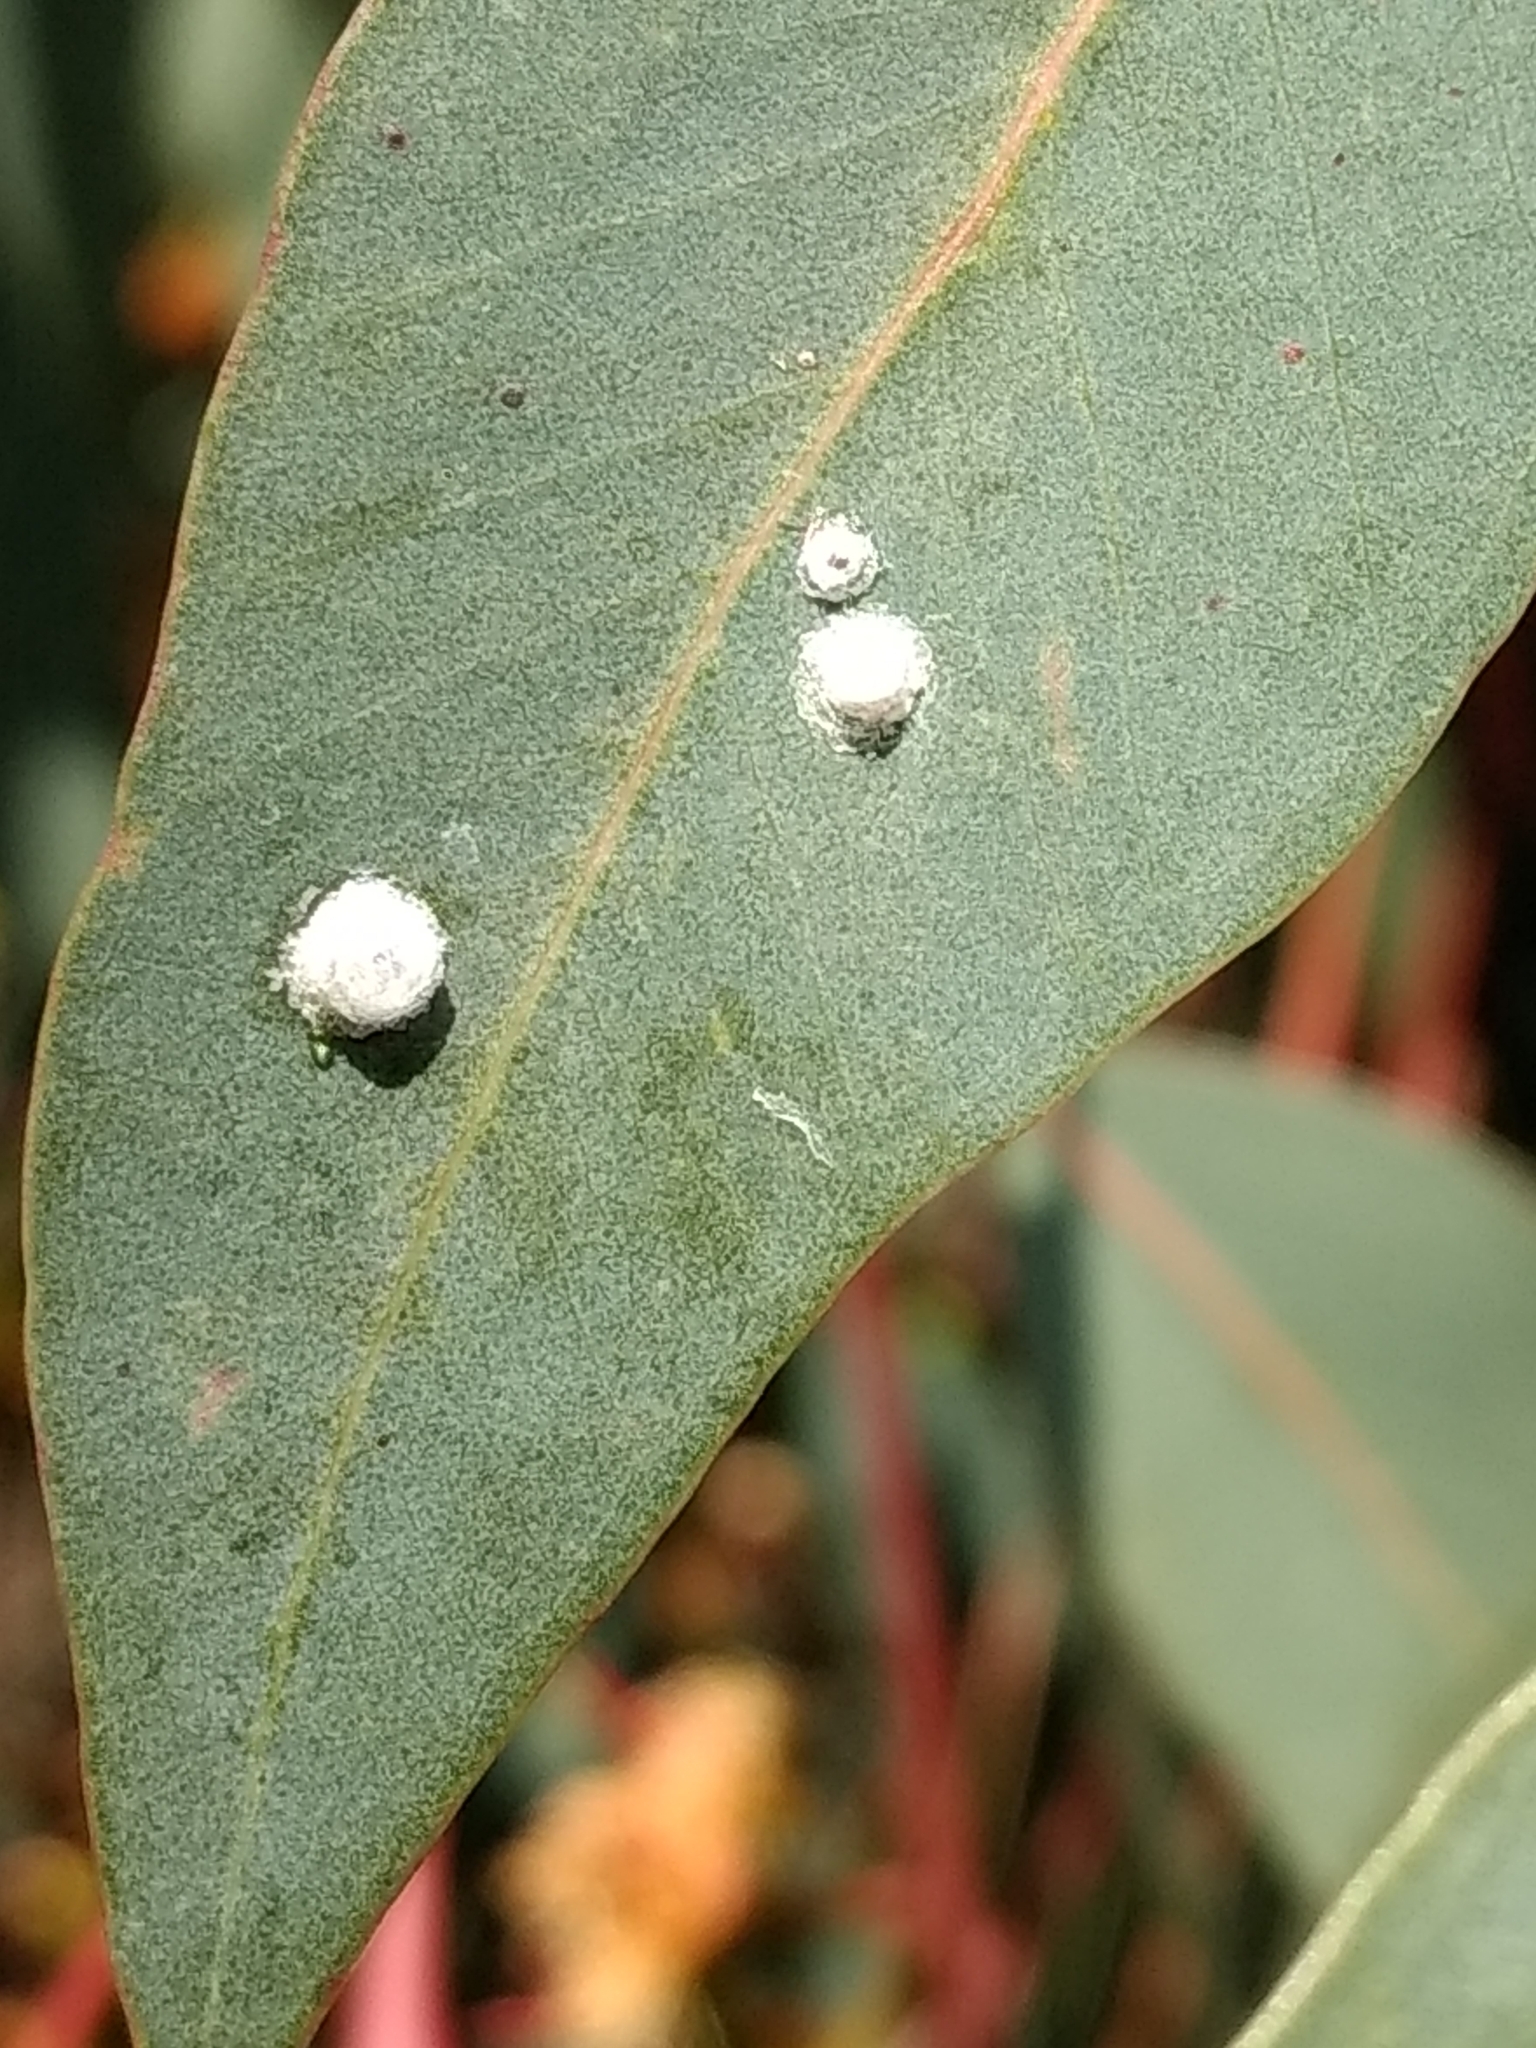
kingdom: Animalia
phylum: Arthropoda
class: Insecta
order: Hemiptera
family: Aphalaridae
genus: Glycaspis
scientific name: Glycaspis brimblecombei
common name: Red gum lerp psyllid
